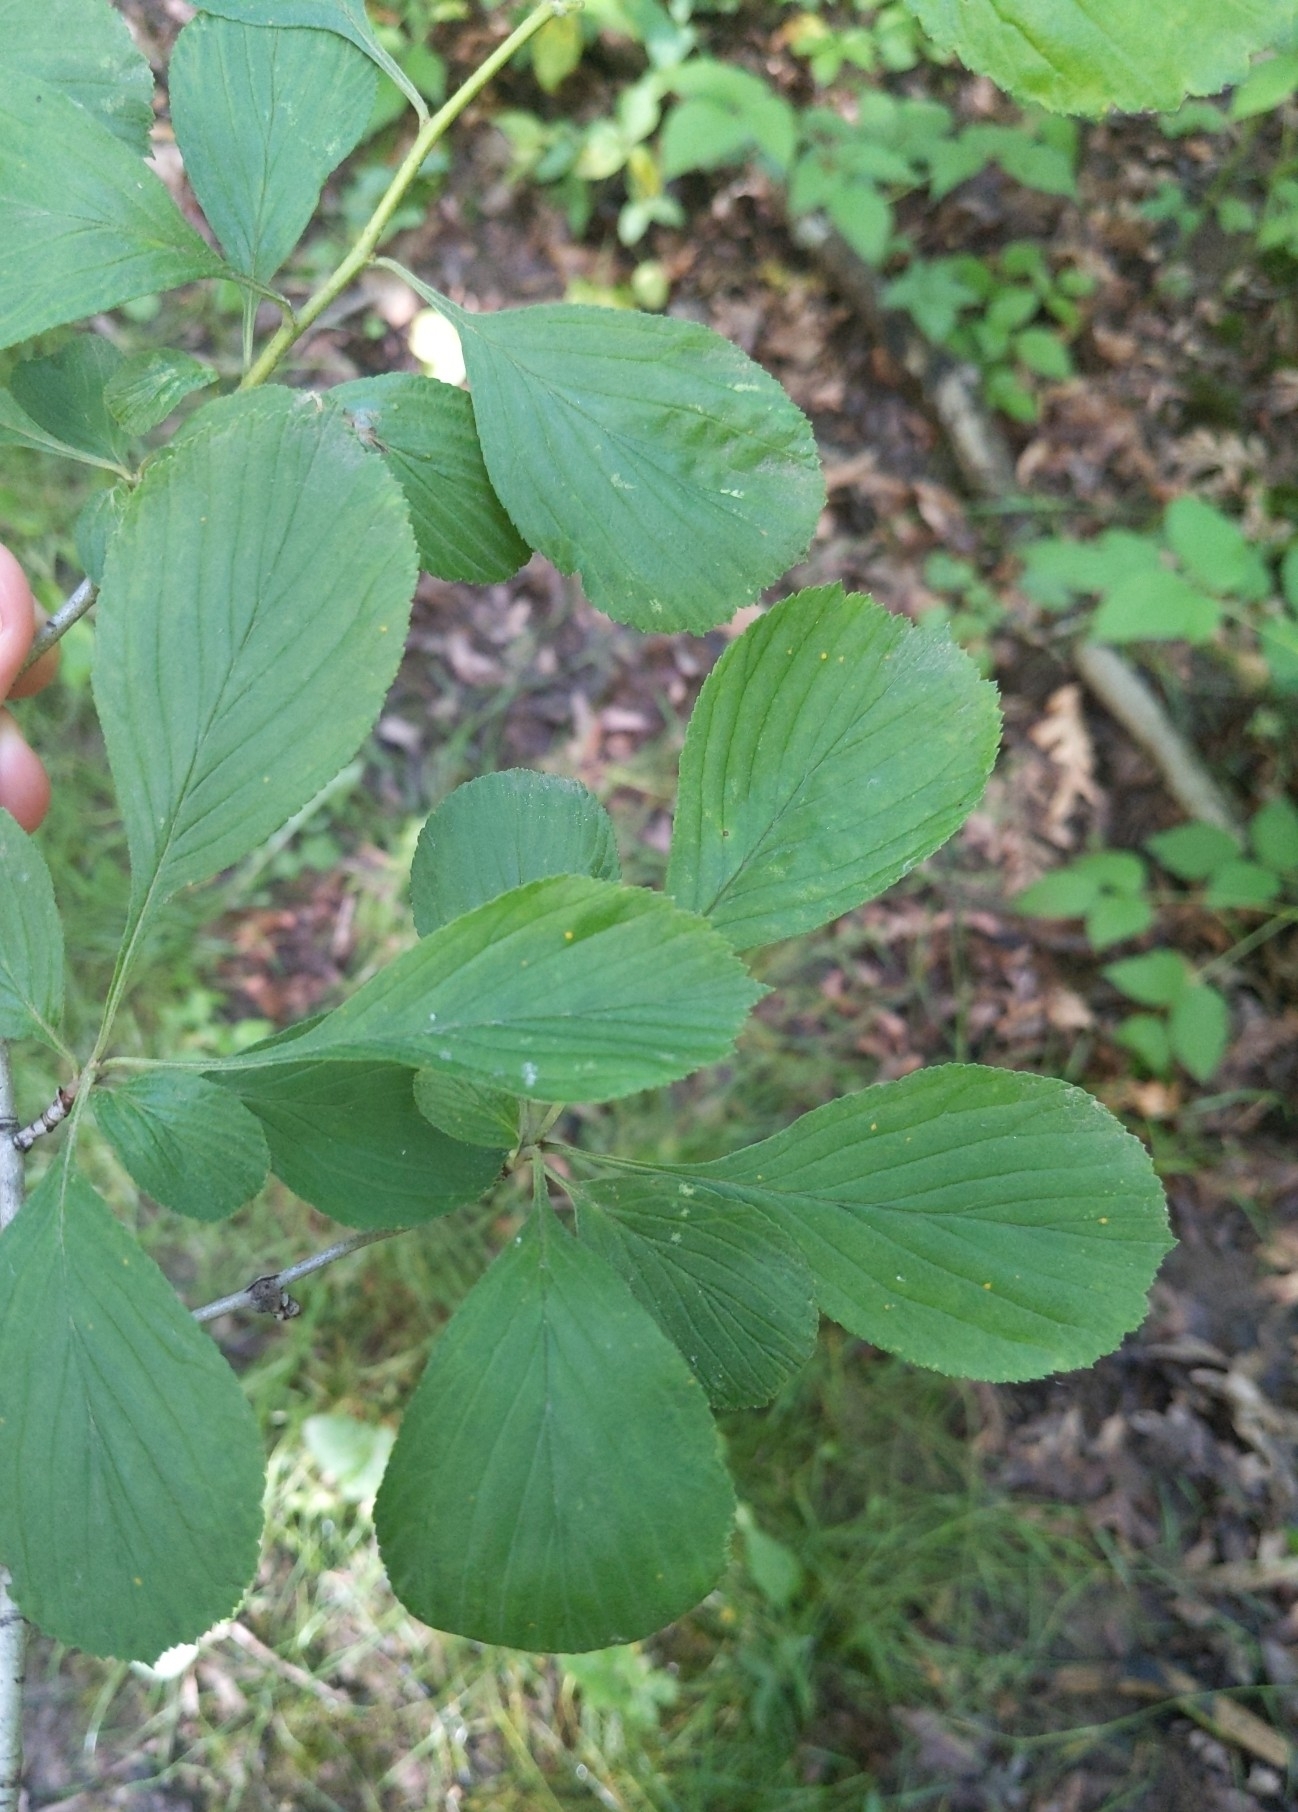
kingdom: Plantae
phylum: Tracheophyta
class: Magnoliopsida
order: Rosales
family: Rosaceae
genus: Crataegus
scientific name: Crataegus punctata
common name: Dotted hawthorn
